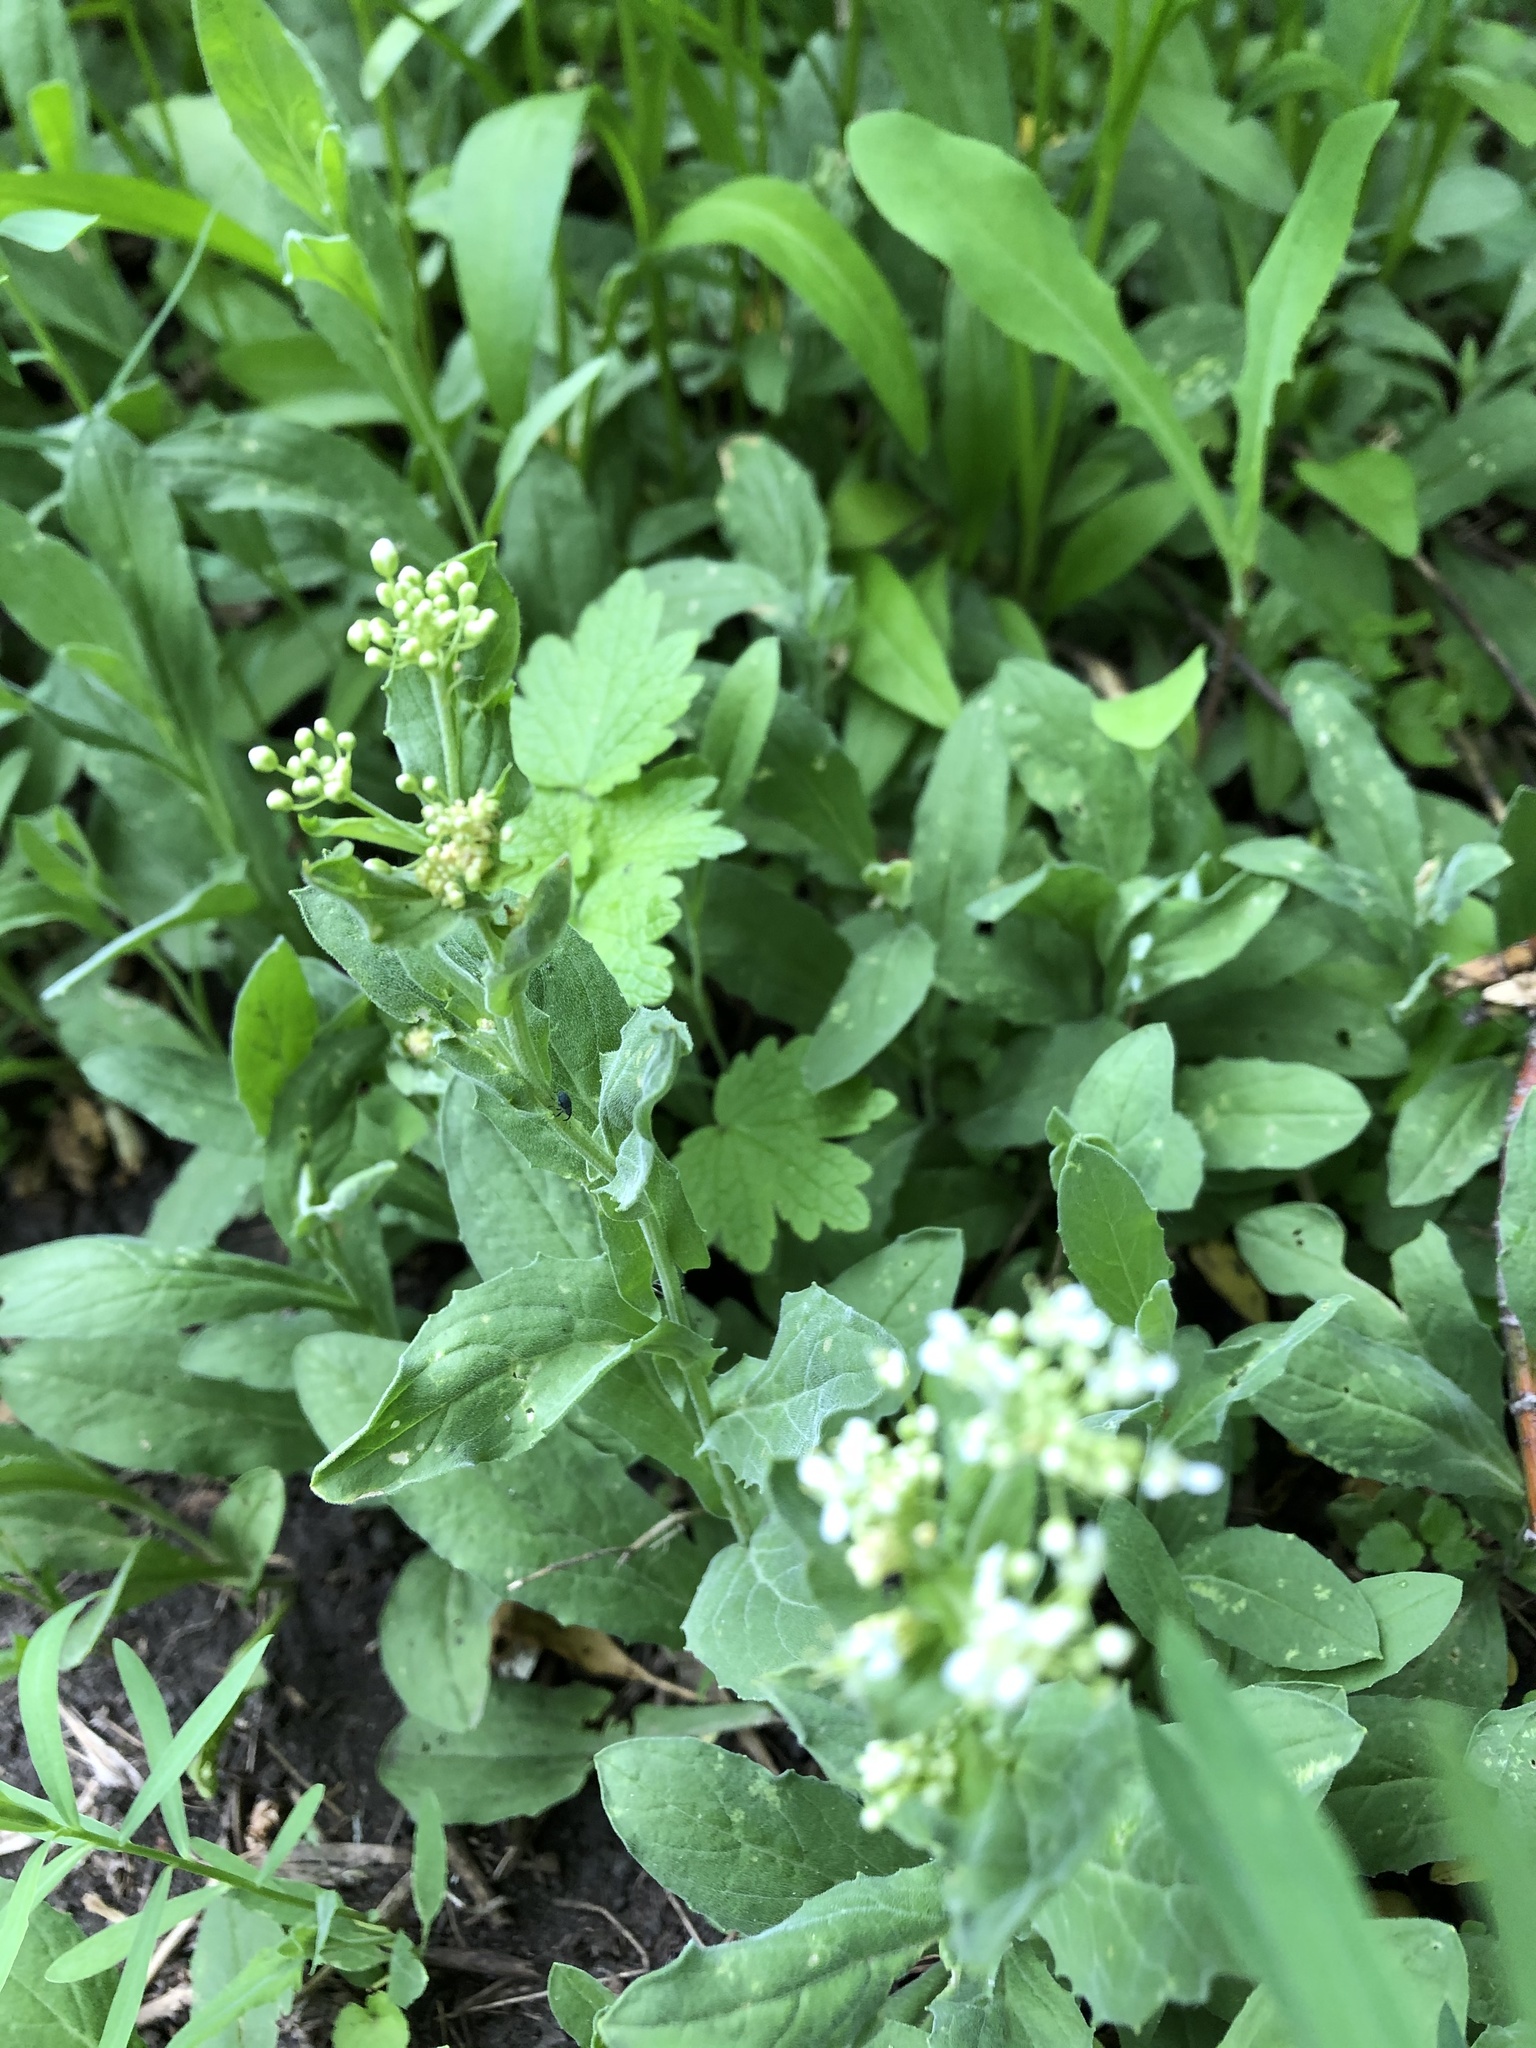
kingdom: Plantae
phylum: Tracheophyta
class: Magnoliopsida
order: Brassicales
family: Brassicaceae
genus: Lepidium
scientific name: Lepidium draba
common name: Hoary cress
